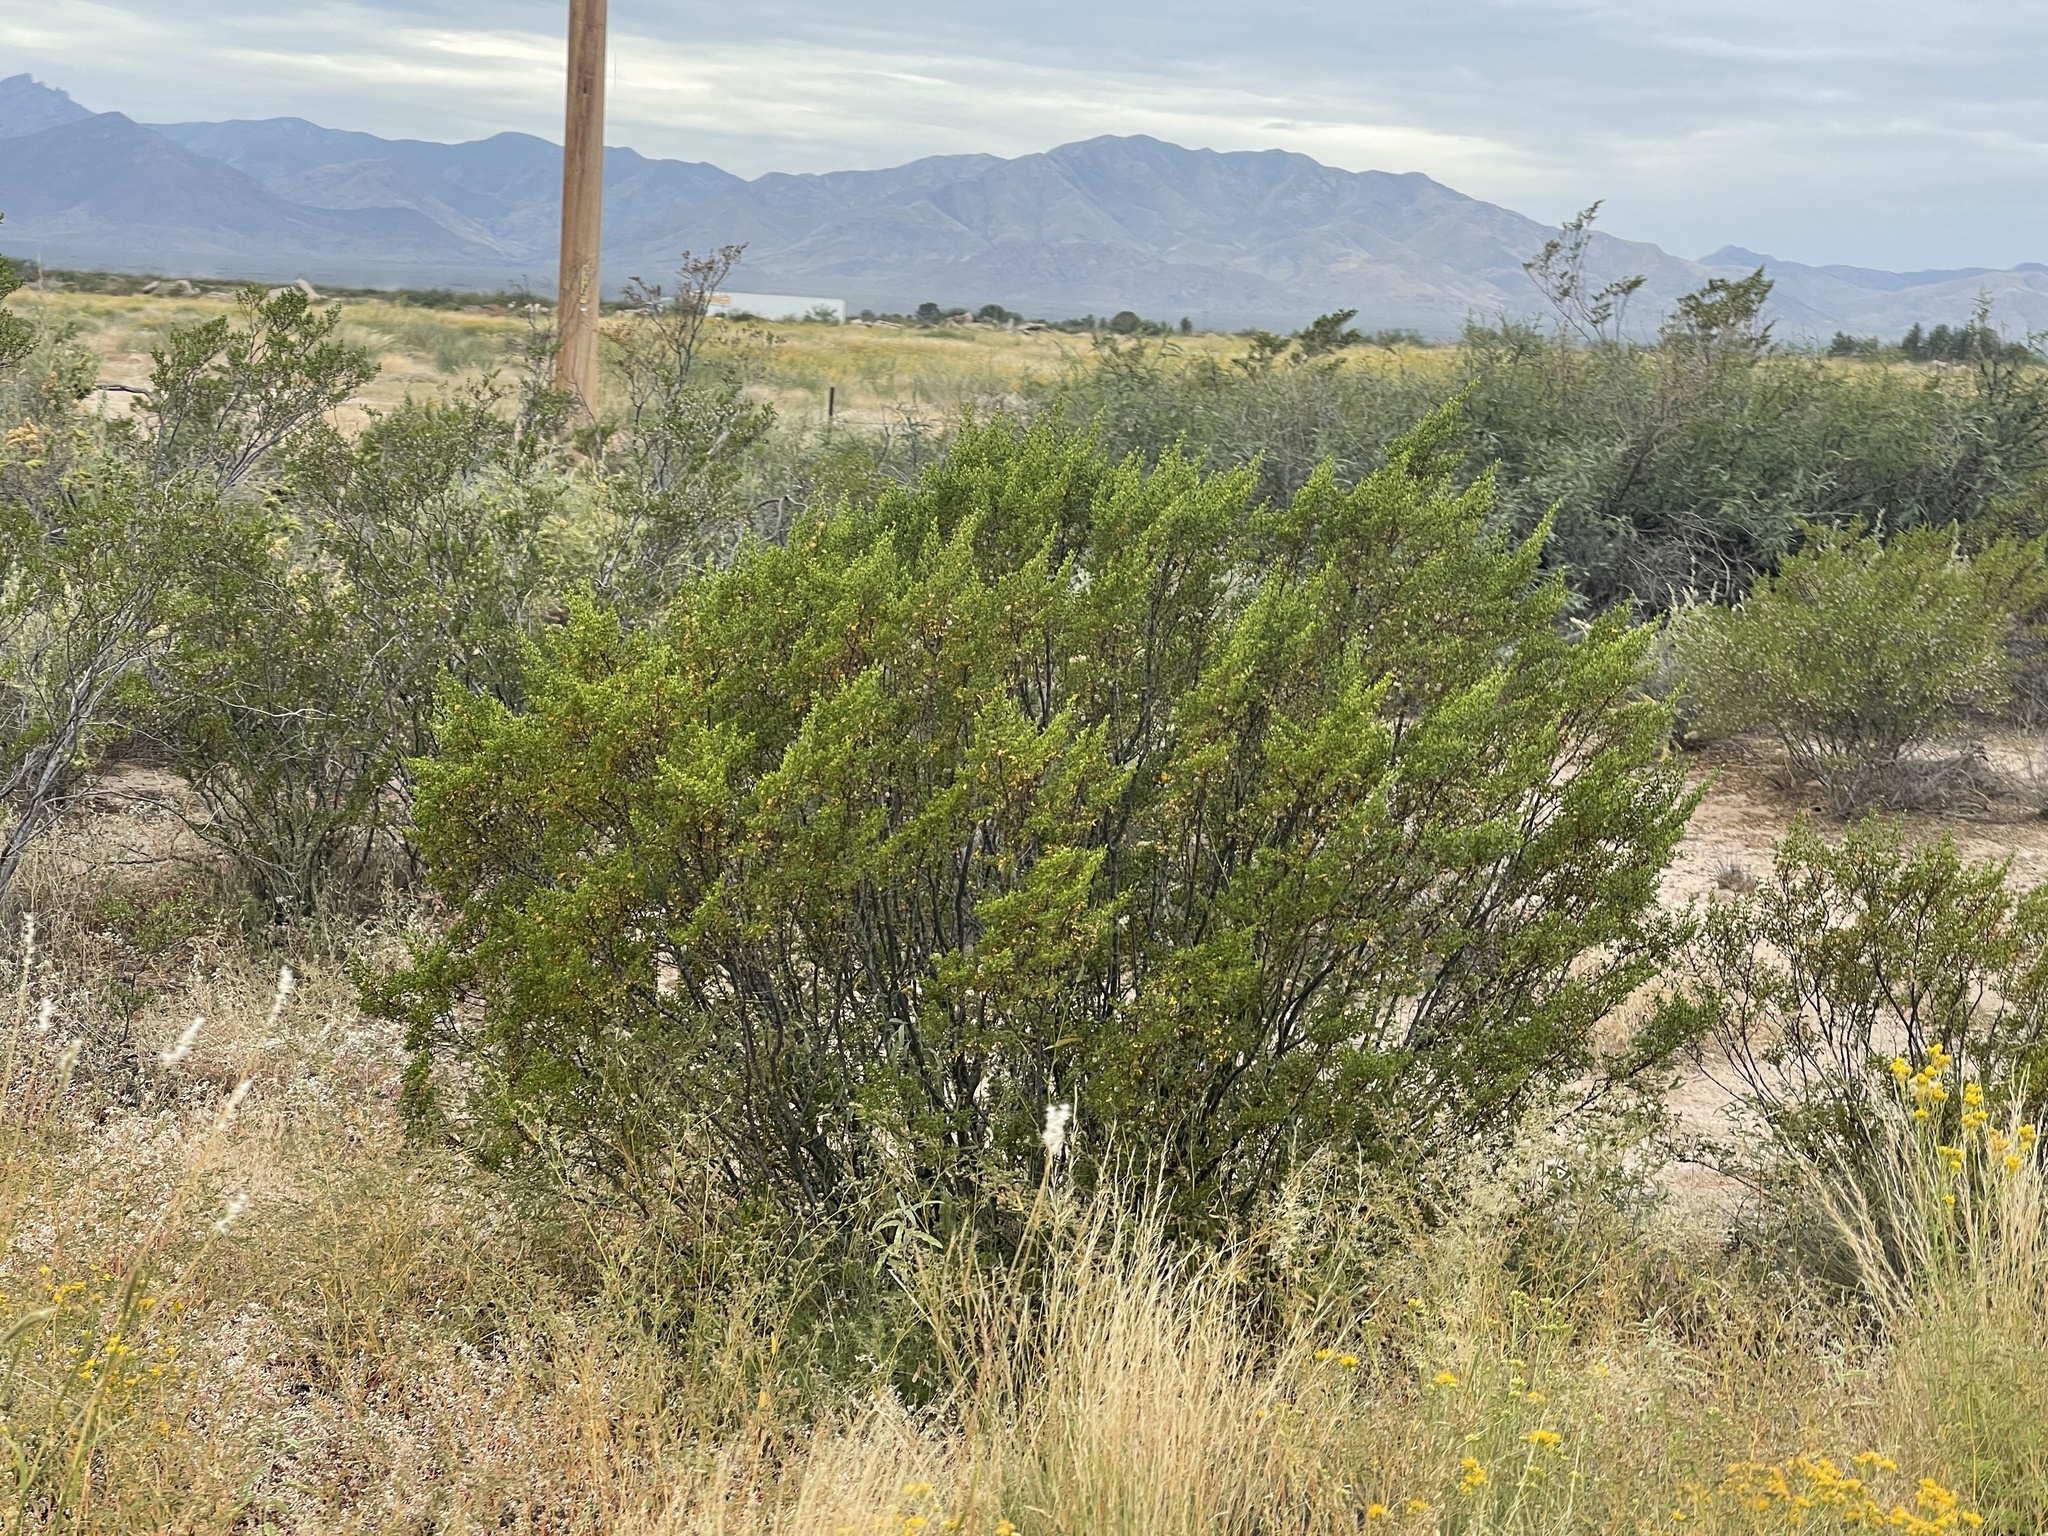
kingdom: Plantae
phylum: Tracheophyta
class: Magnoliopsida
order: Zygophyllales
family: Zygophyllaceae
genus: Larrea
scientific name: Larrea tridentata
